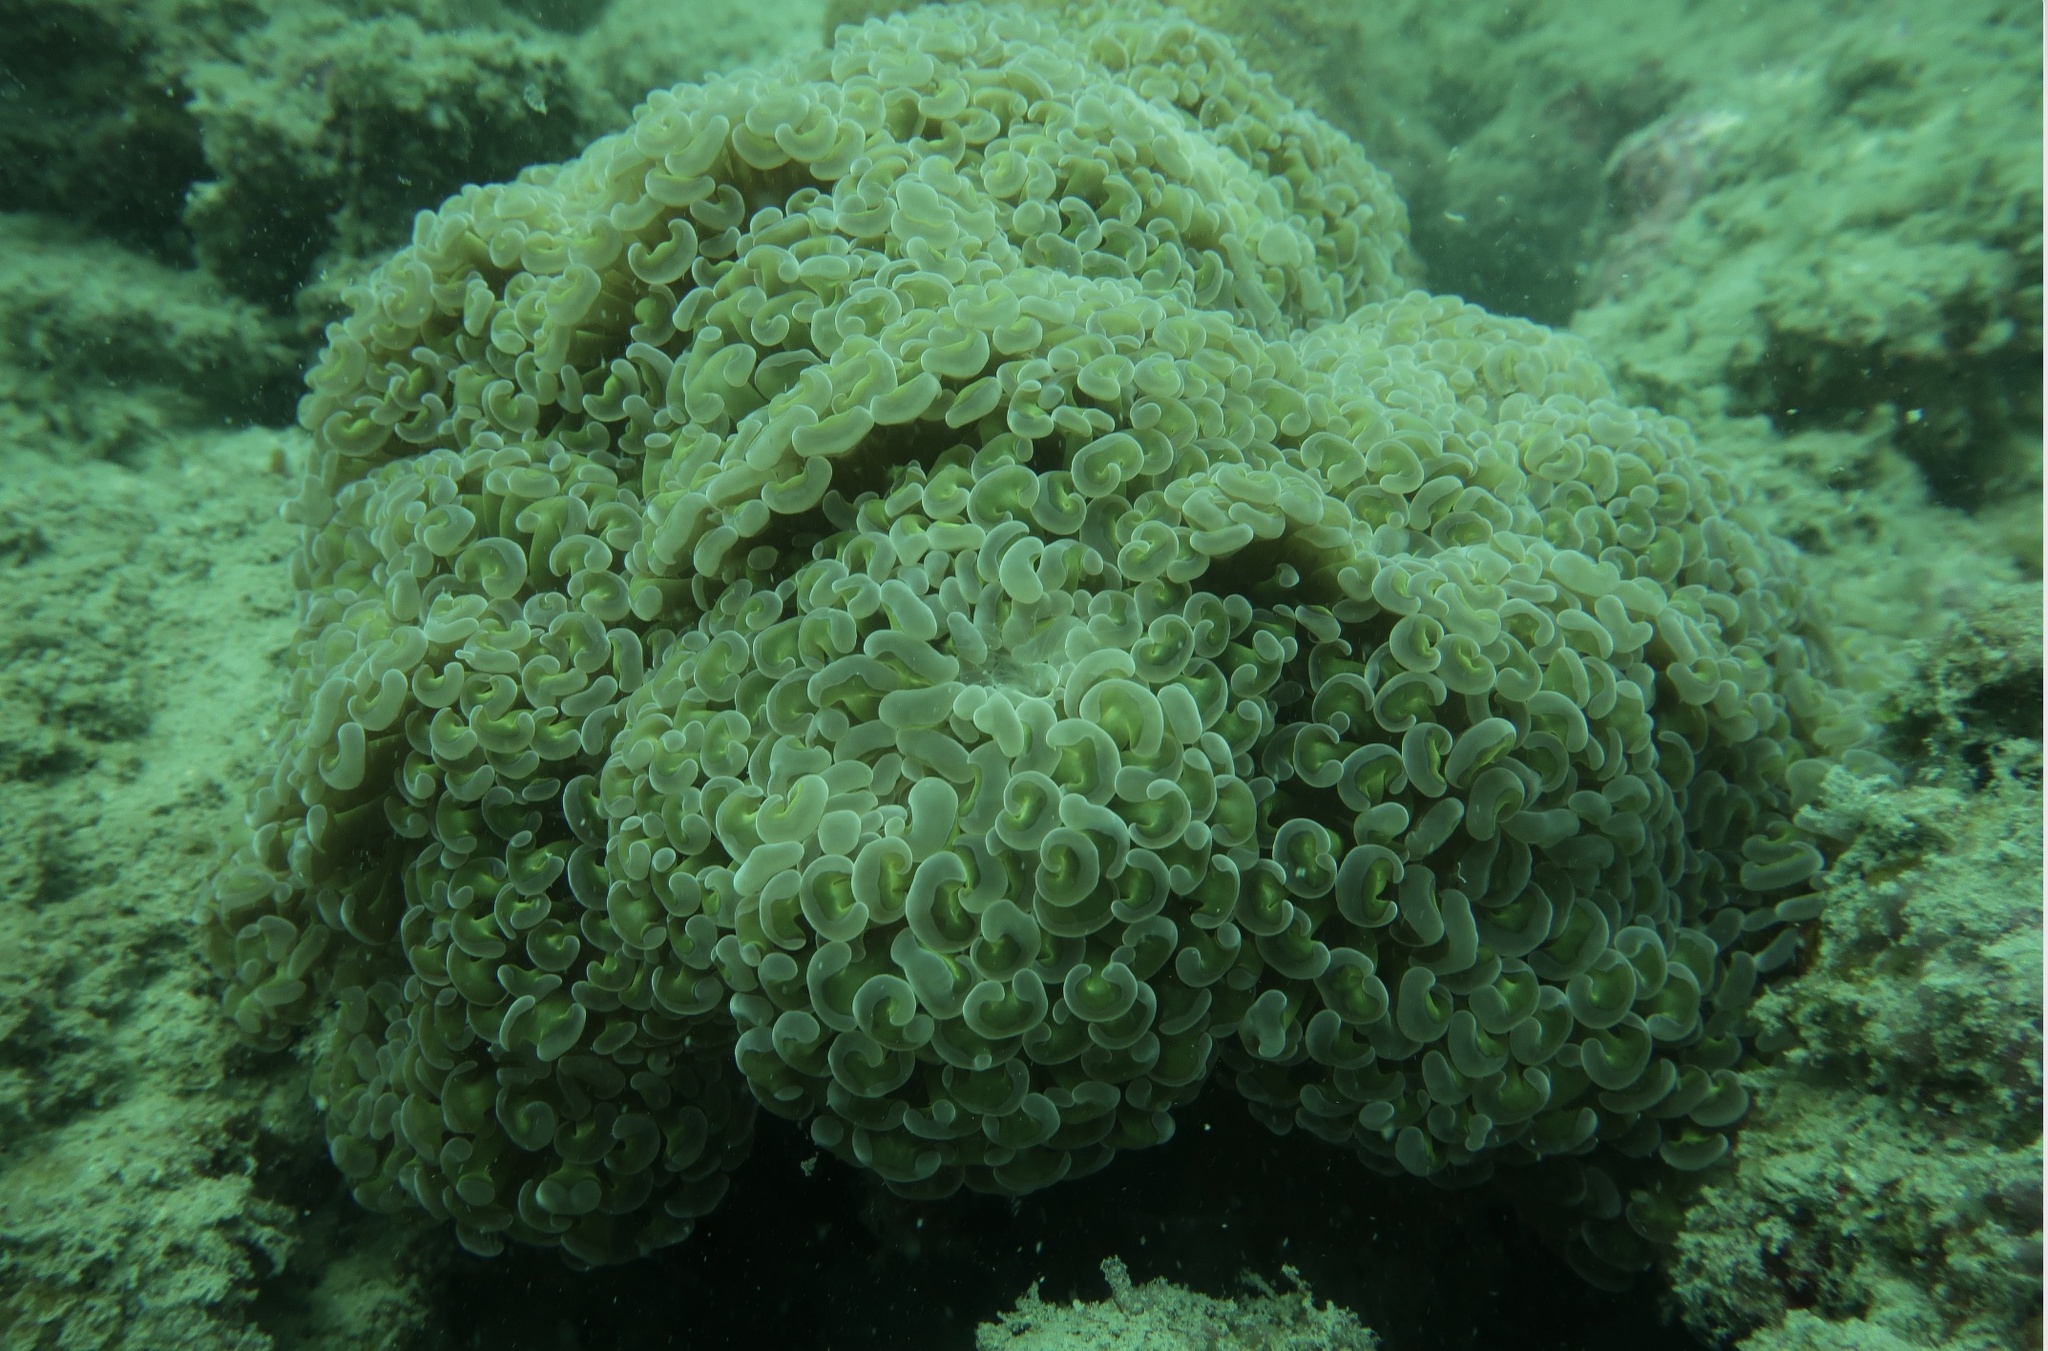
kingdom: Animalia
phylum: Cnidaria
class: Anthozoa
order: Scleractinia
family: Euphylliidae
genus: Fimbriaphyllia
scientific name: Fimbriaphyllia ancora
